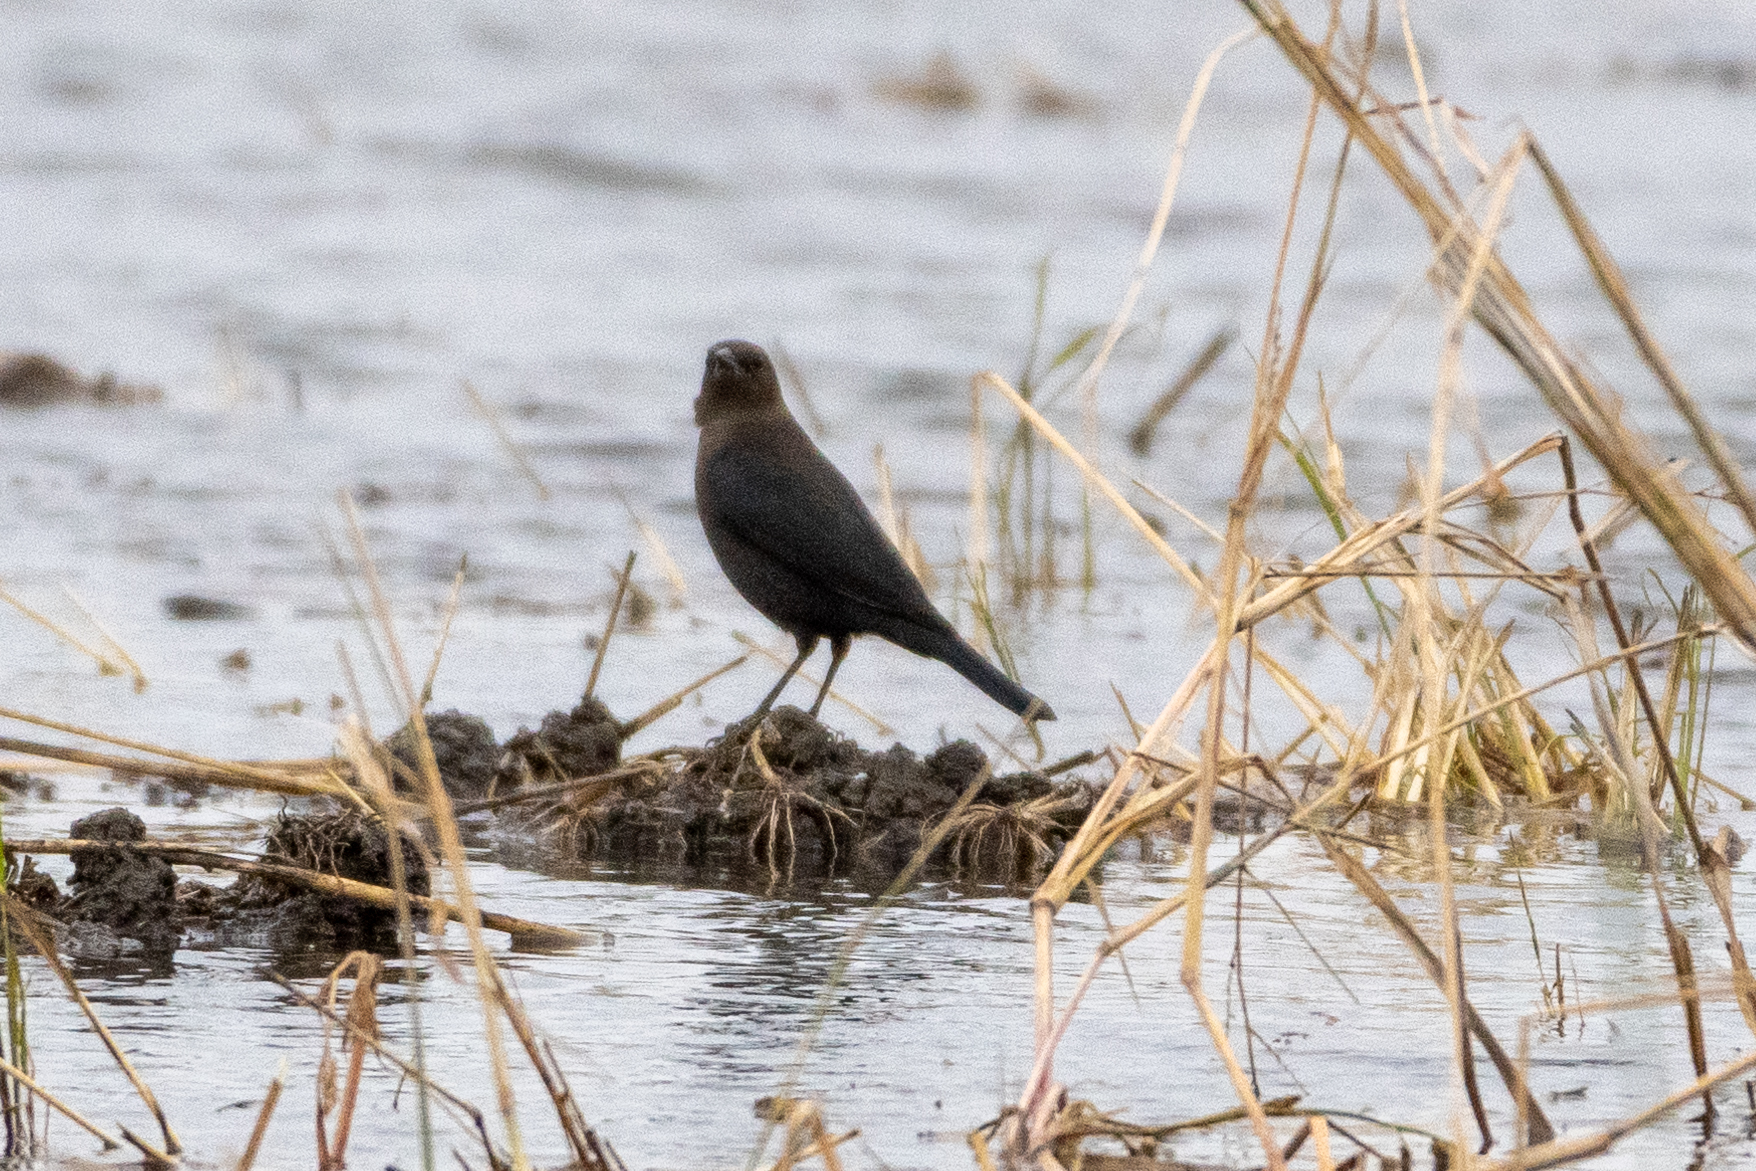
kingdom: Animalia
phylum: Chordata
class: Aves
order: Passeriformes
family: Icteridae
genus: Euphagus
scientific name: Euphagus cyanocephalus
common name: Brewer's blackbird
